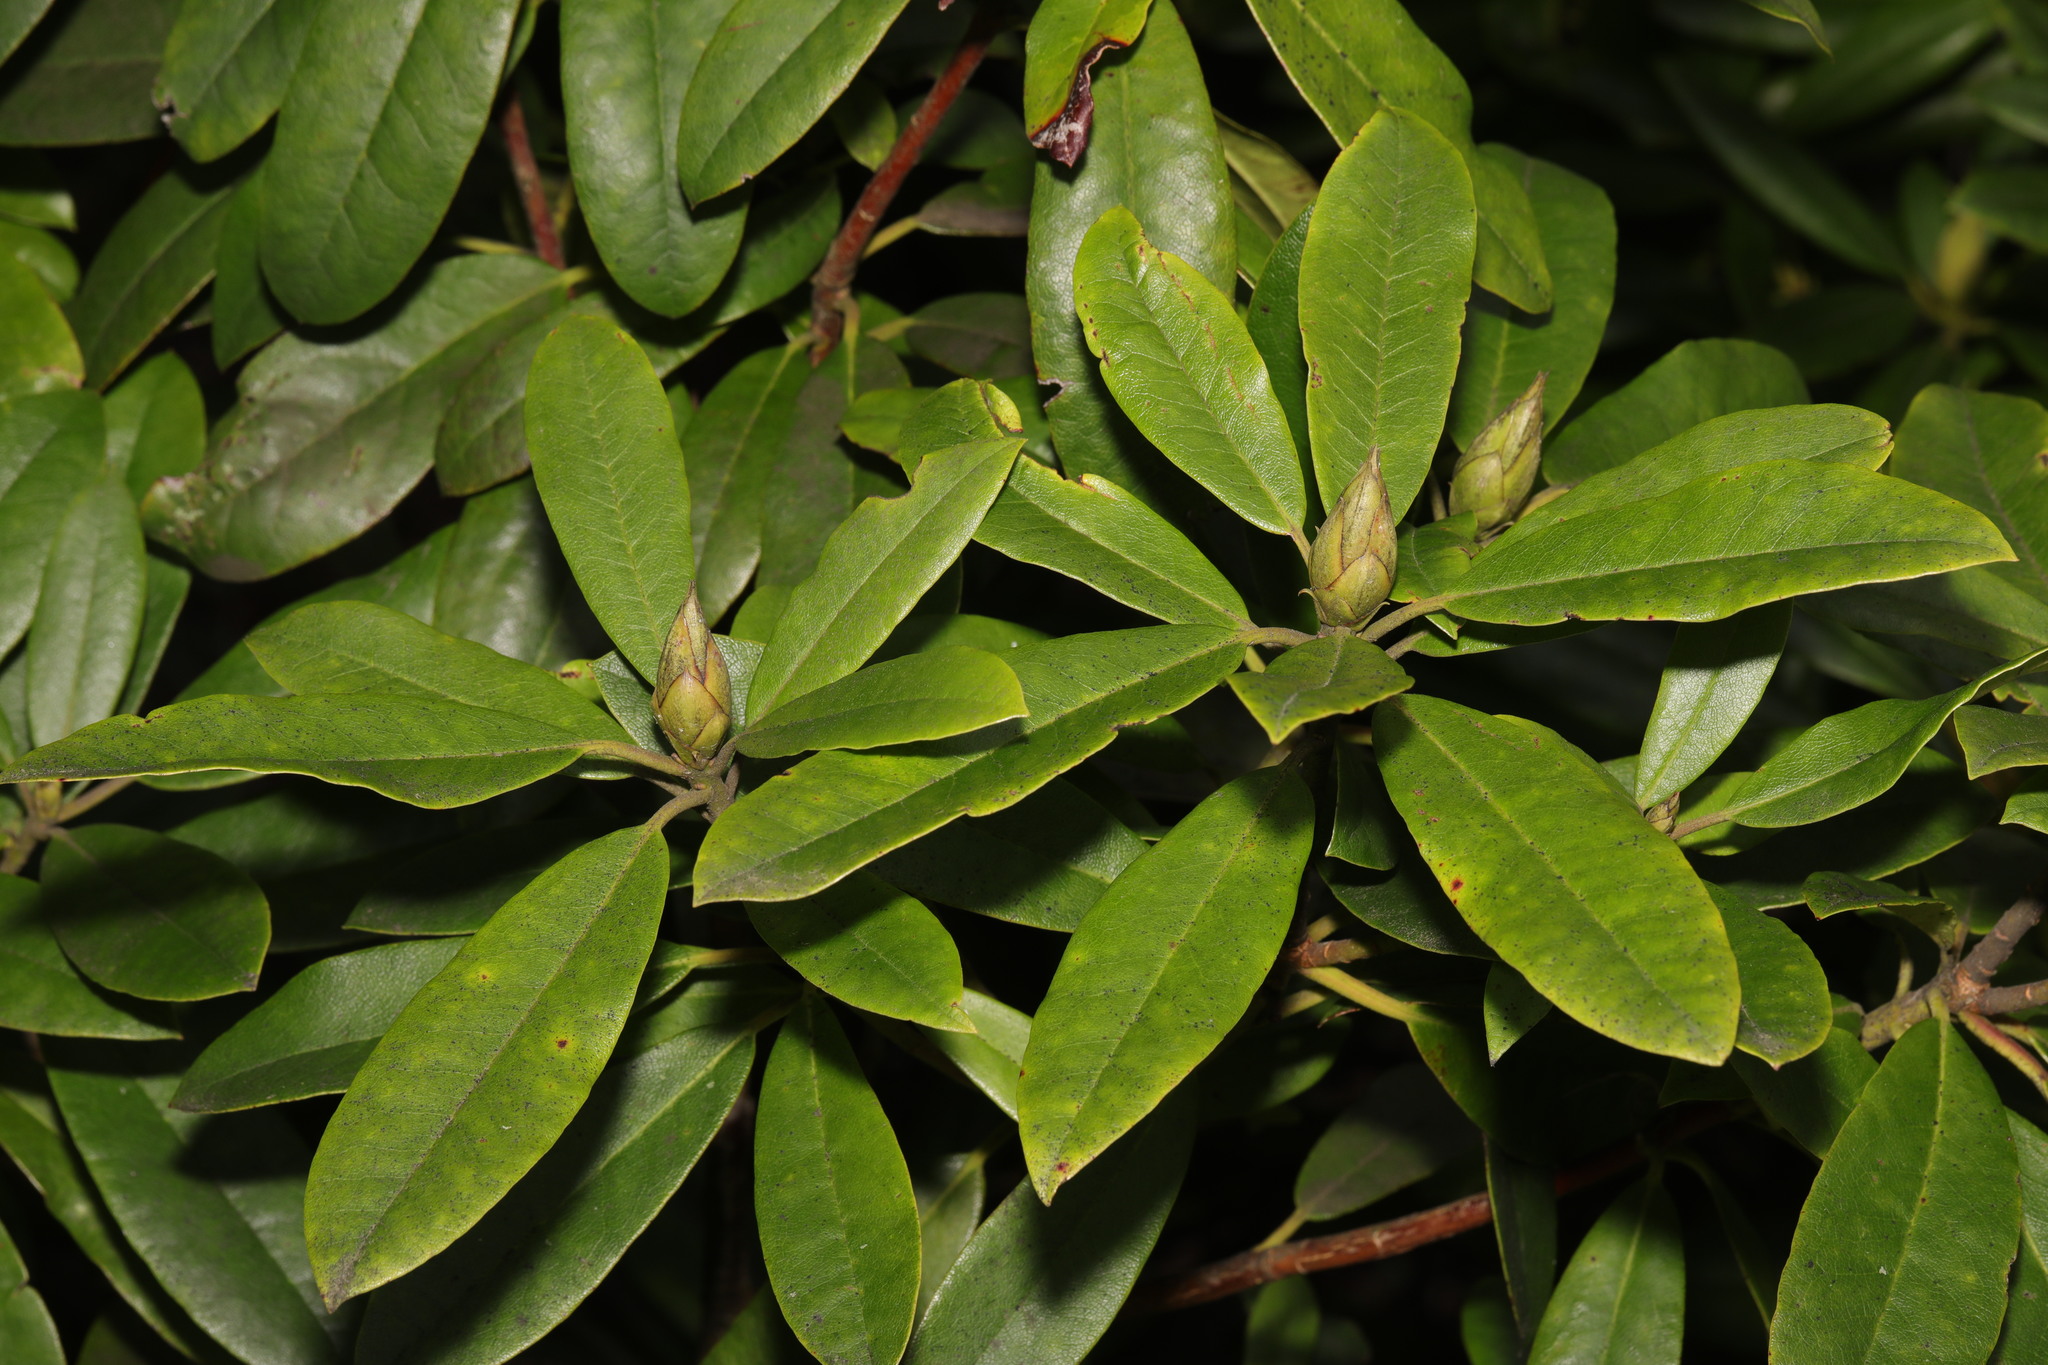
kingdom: Plantae
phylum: Tracheophyta
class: Magnoliopsida
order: Ericales
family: Ericaceae
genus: Rhododendron
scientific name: Rhododendron ponticum
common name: Rhododendron
